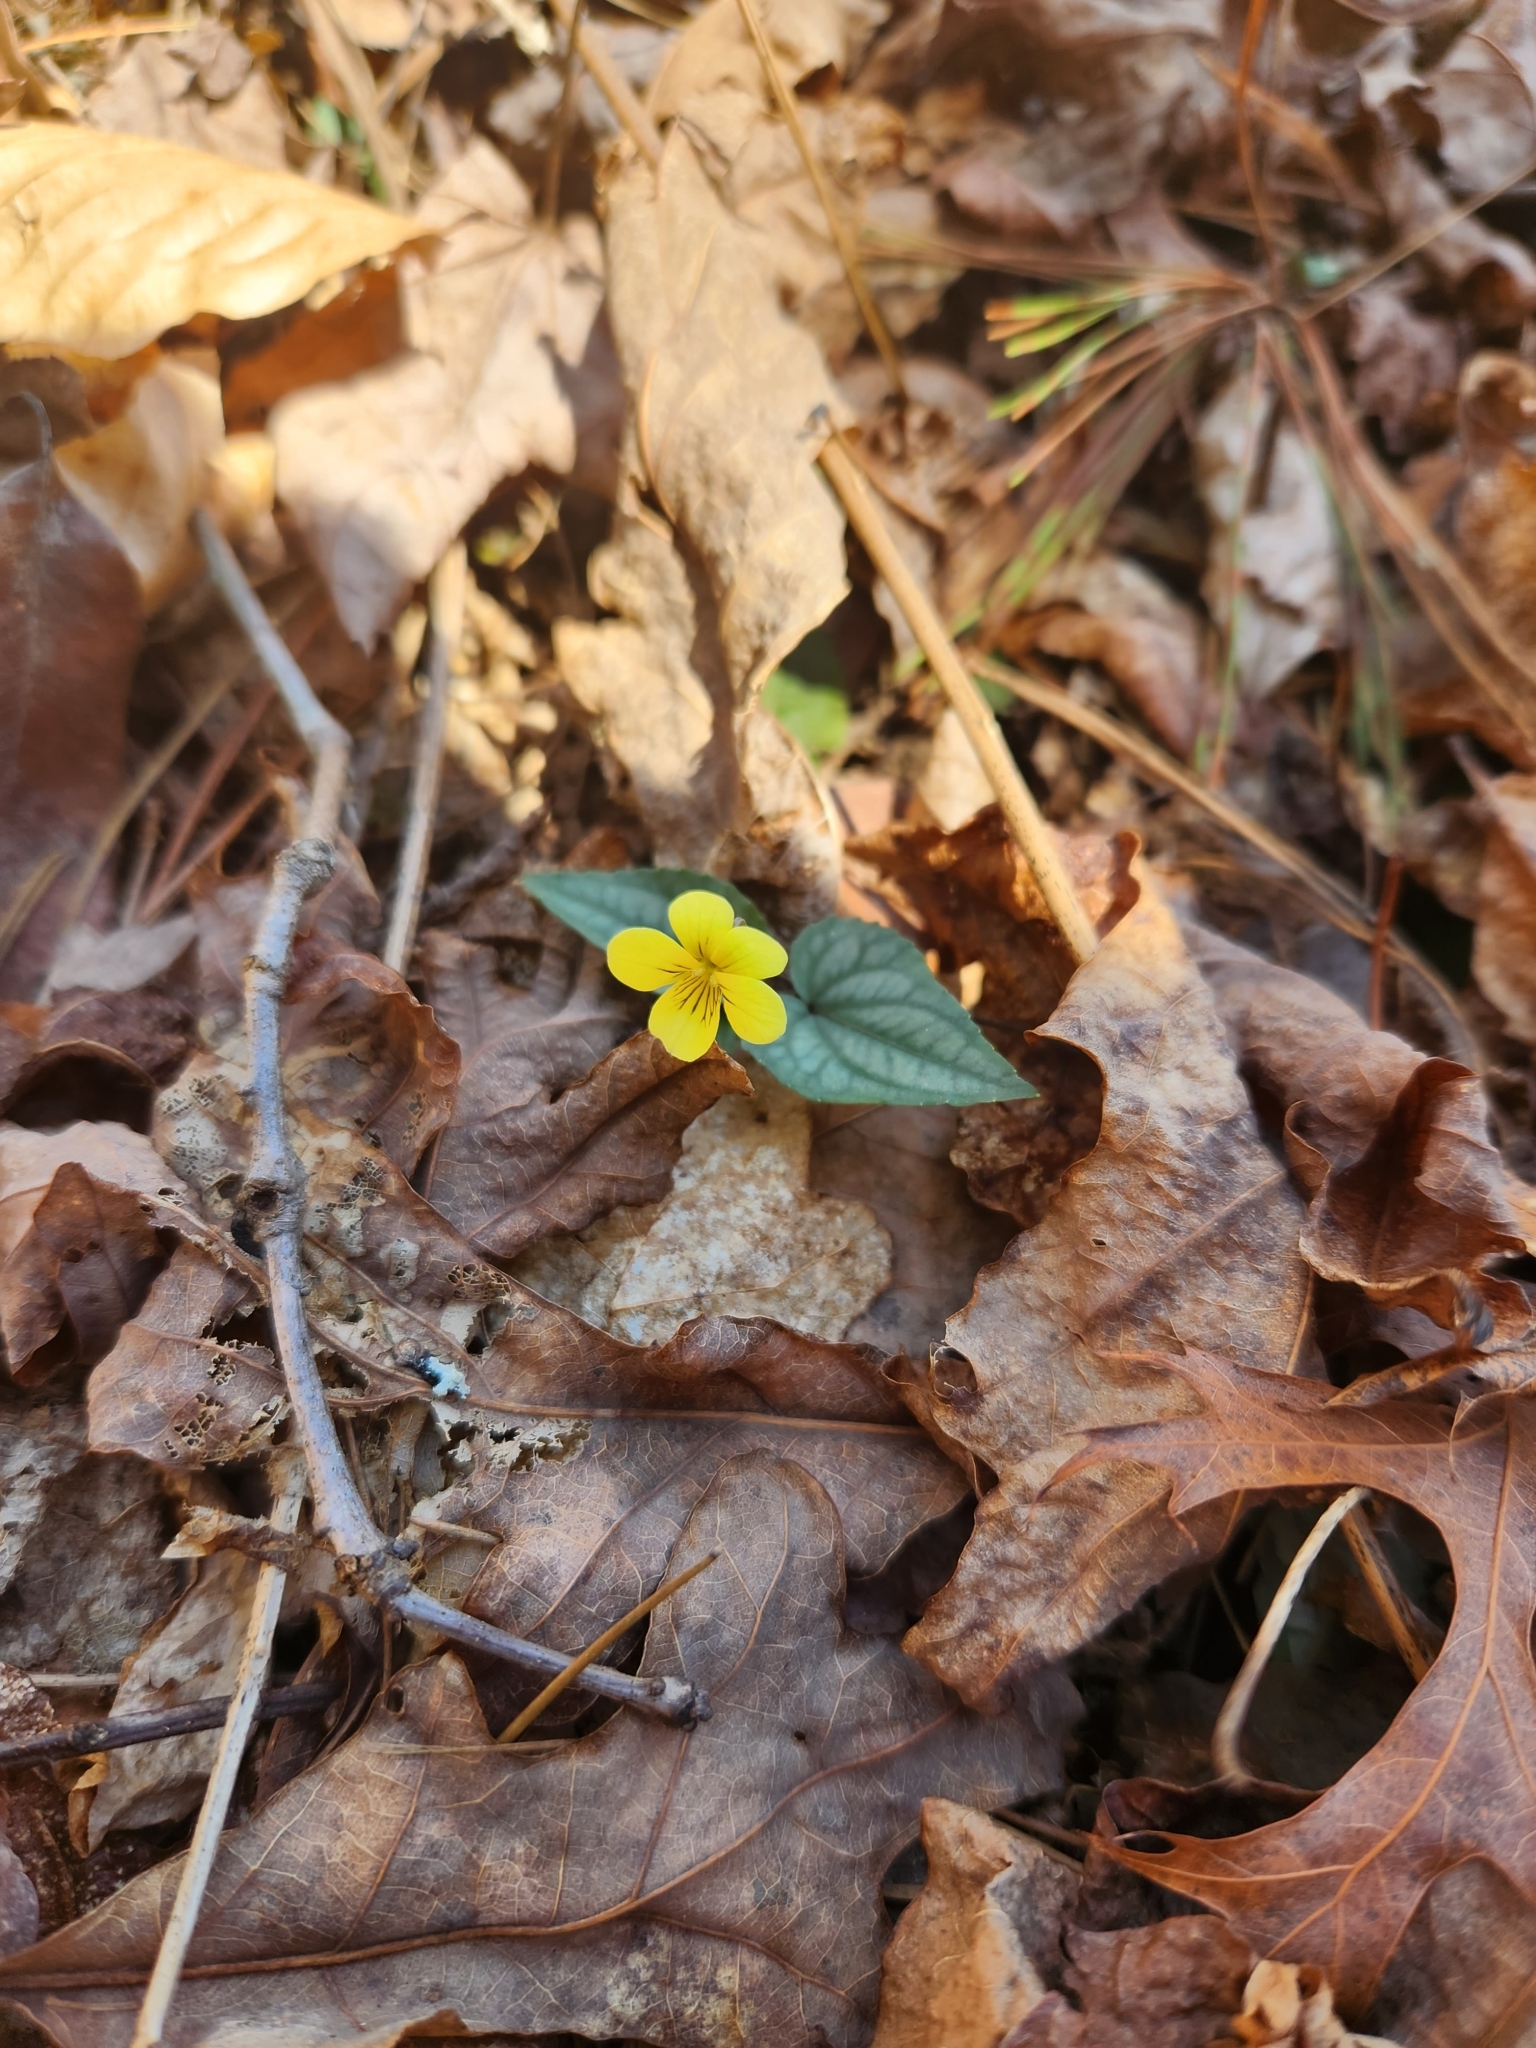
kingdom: Plantae
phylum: Tracheophyta
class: Magnoliopsida
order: Malpighiales
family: Violaceae
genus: Viola
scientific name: Viola hastata
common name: Spear-leaf violet
